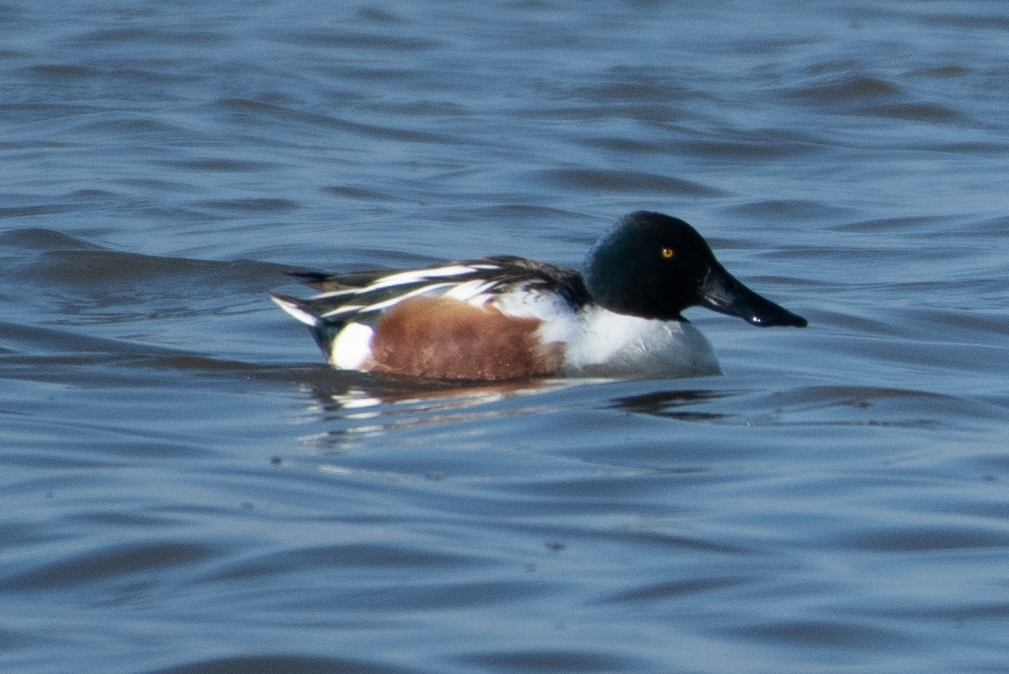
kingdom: Animalia
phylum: Chordata
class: Aves
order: Anseriformes
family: Anatidae
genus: Spatula
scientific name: Spatula clypeata
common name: Northern shoveler
